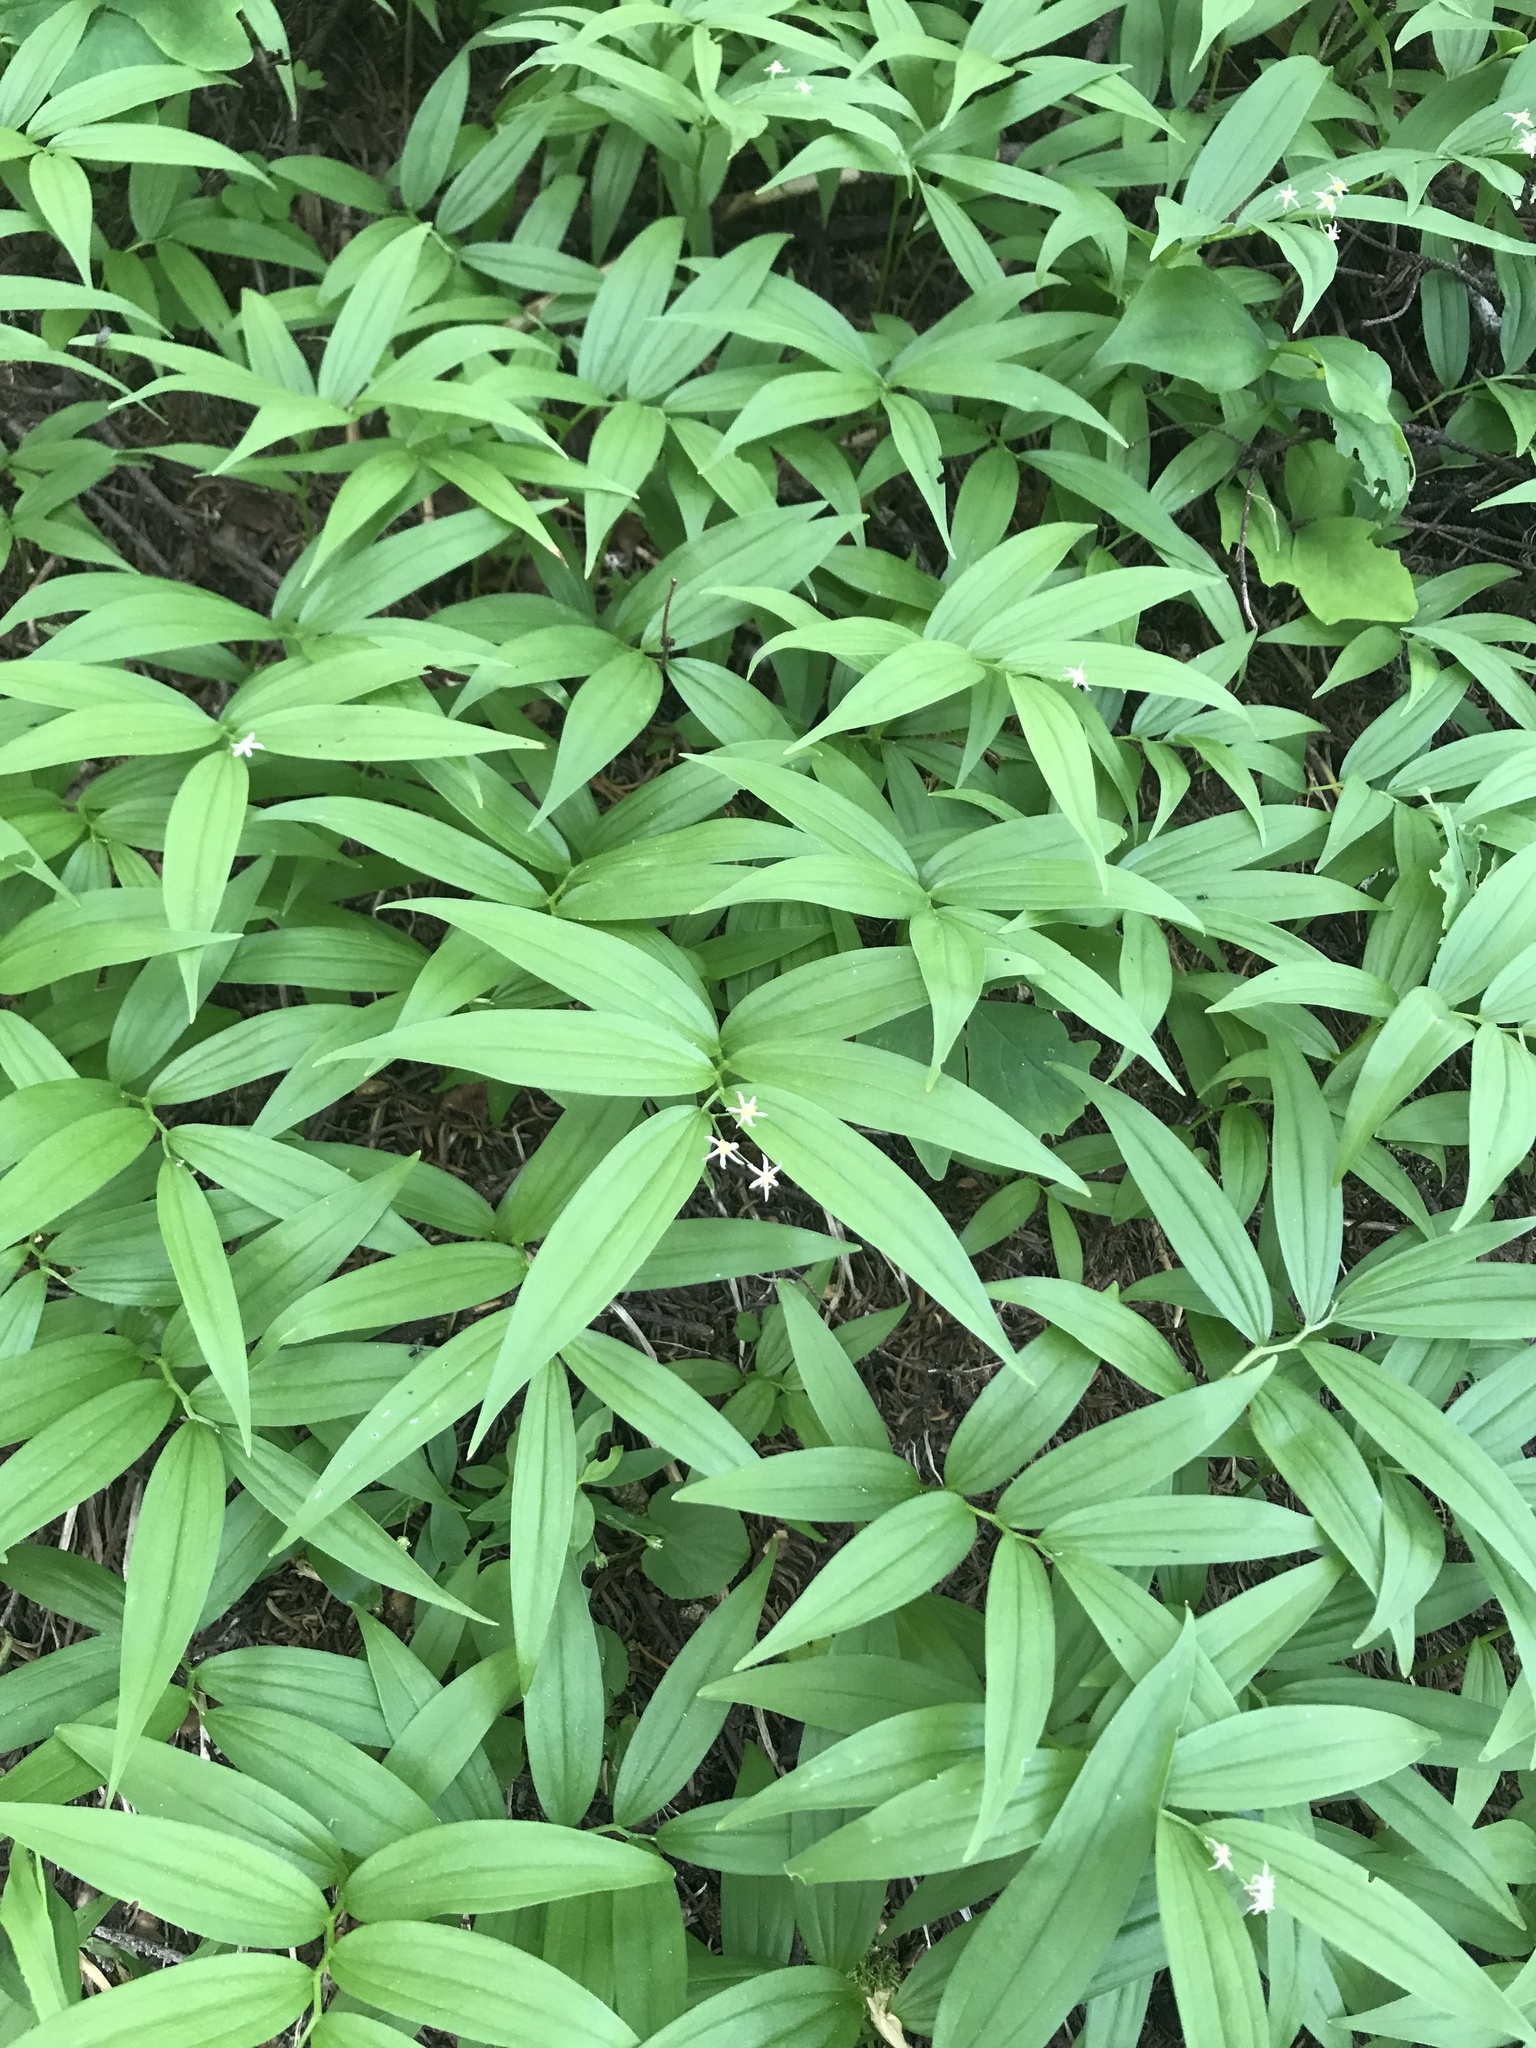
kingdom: Plantae
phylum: Tracheophyta
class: Liliopsida
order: Asparagales
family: Asparagaceae
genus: Maianthemum
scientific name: Maianthemum stellatum
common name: Little false solomon's seal
